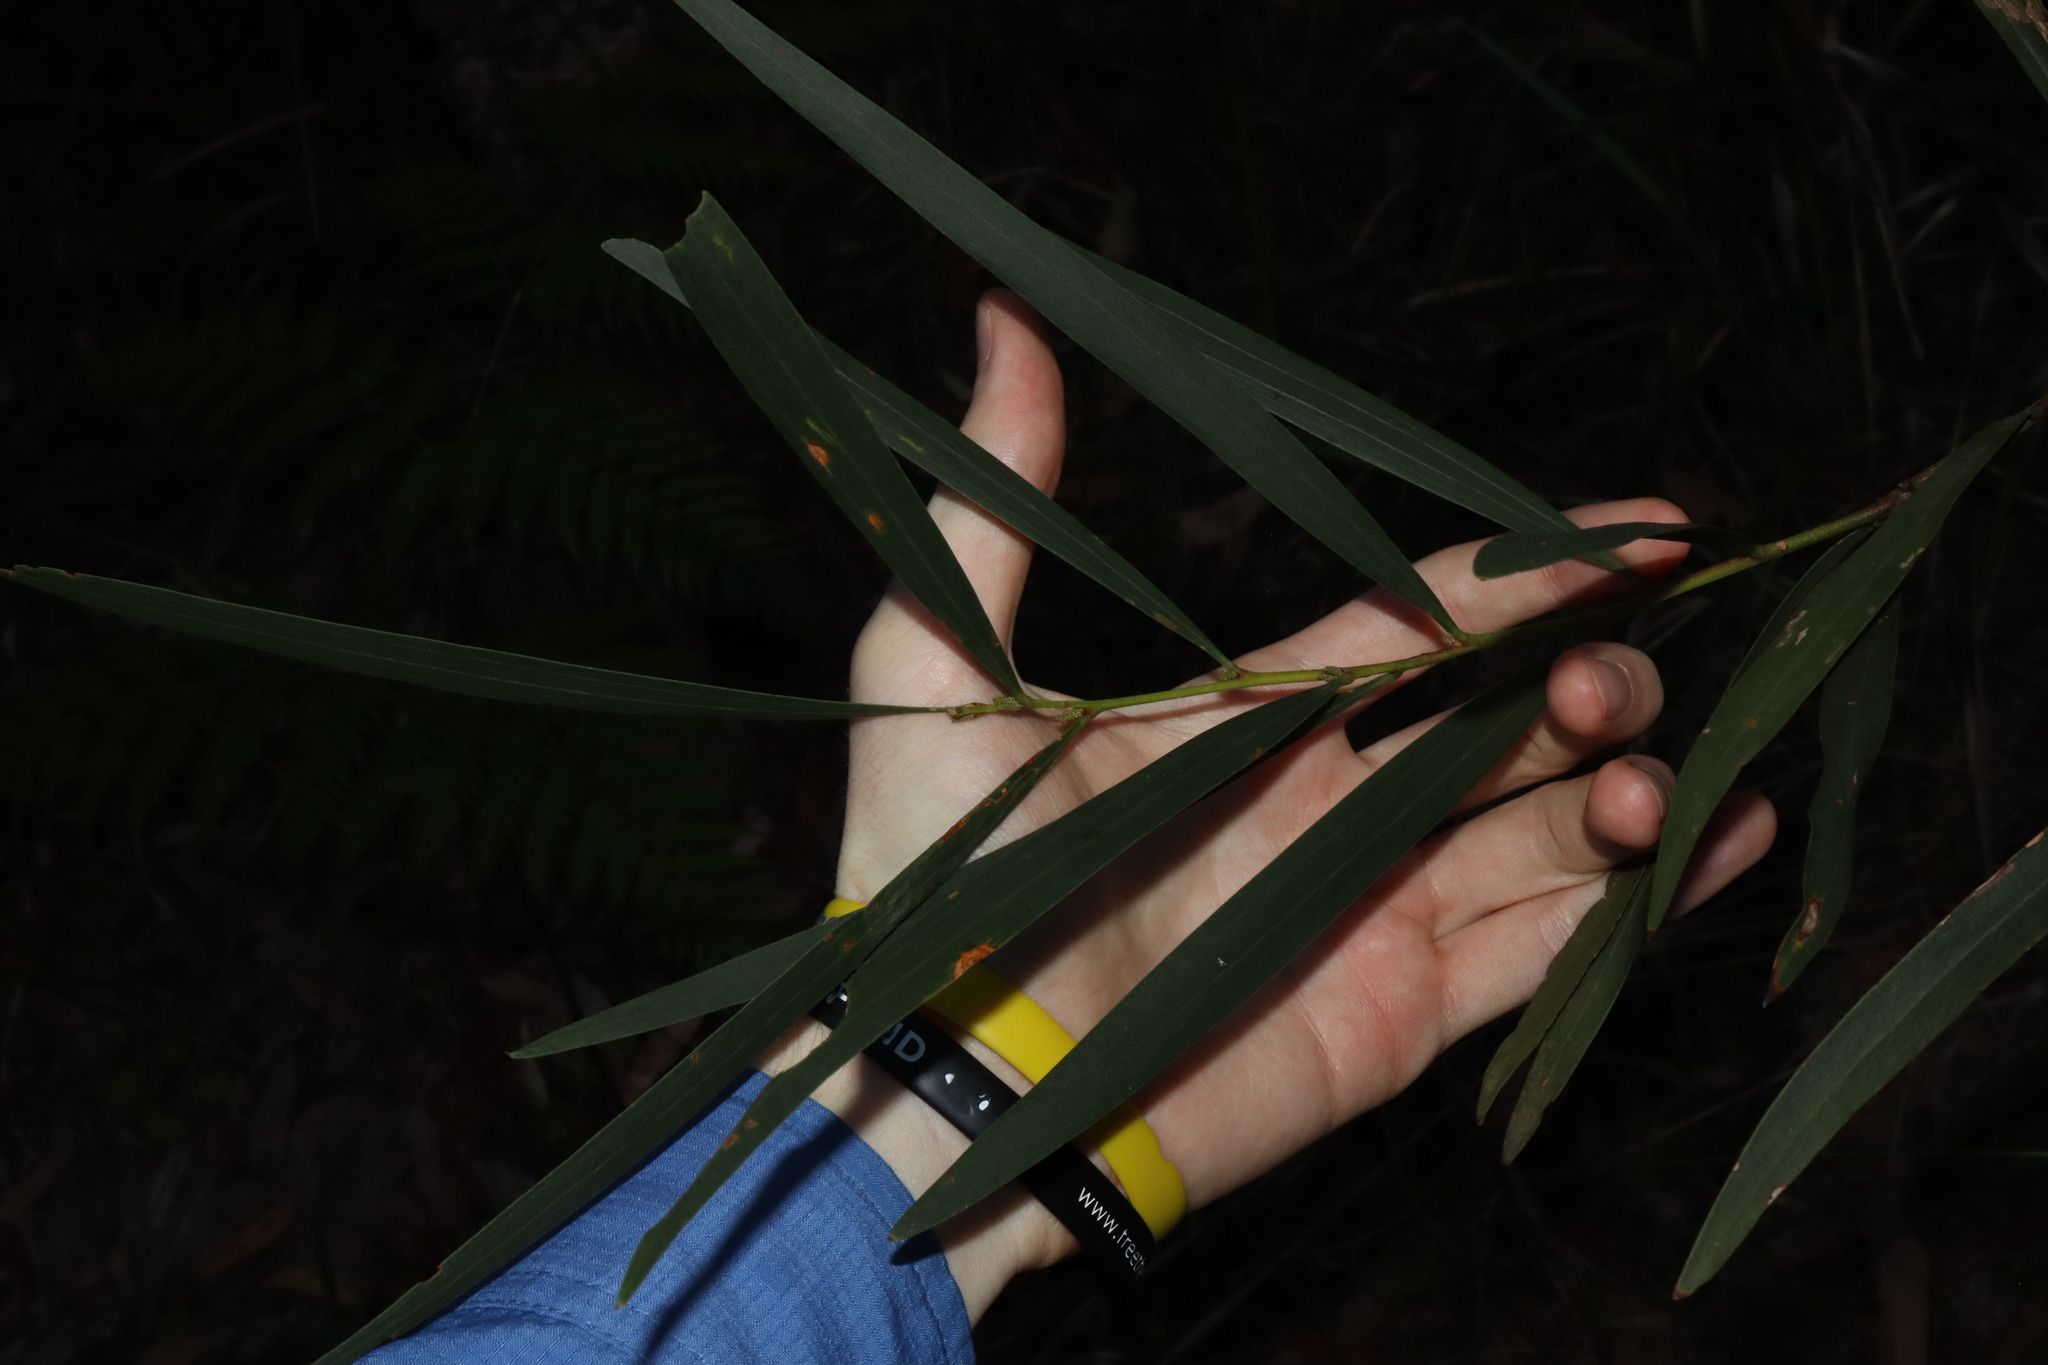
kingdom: Plantae
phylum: Tracheophyta
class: Magnoliopsida
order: Fabales
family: Fabaceae
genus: Acacia
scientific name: Acacia longifolia
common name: Sydney golden wattle
